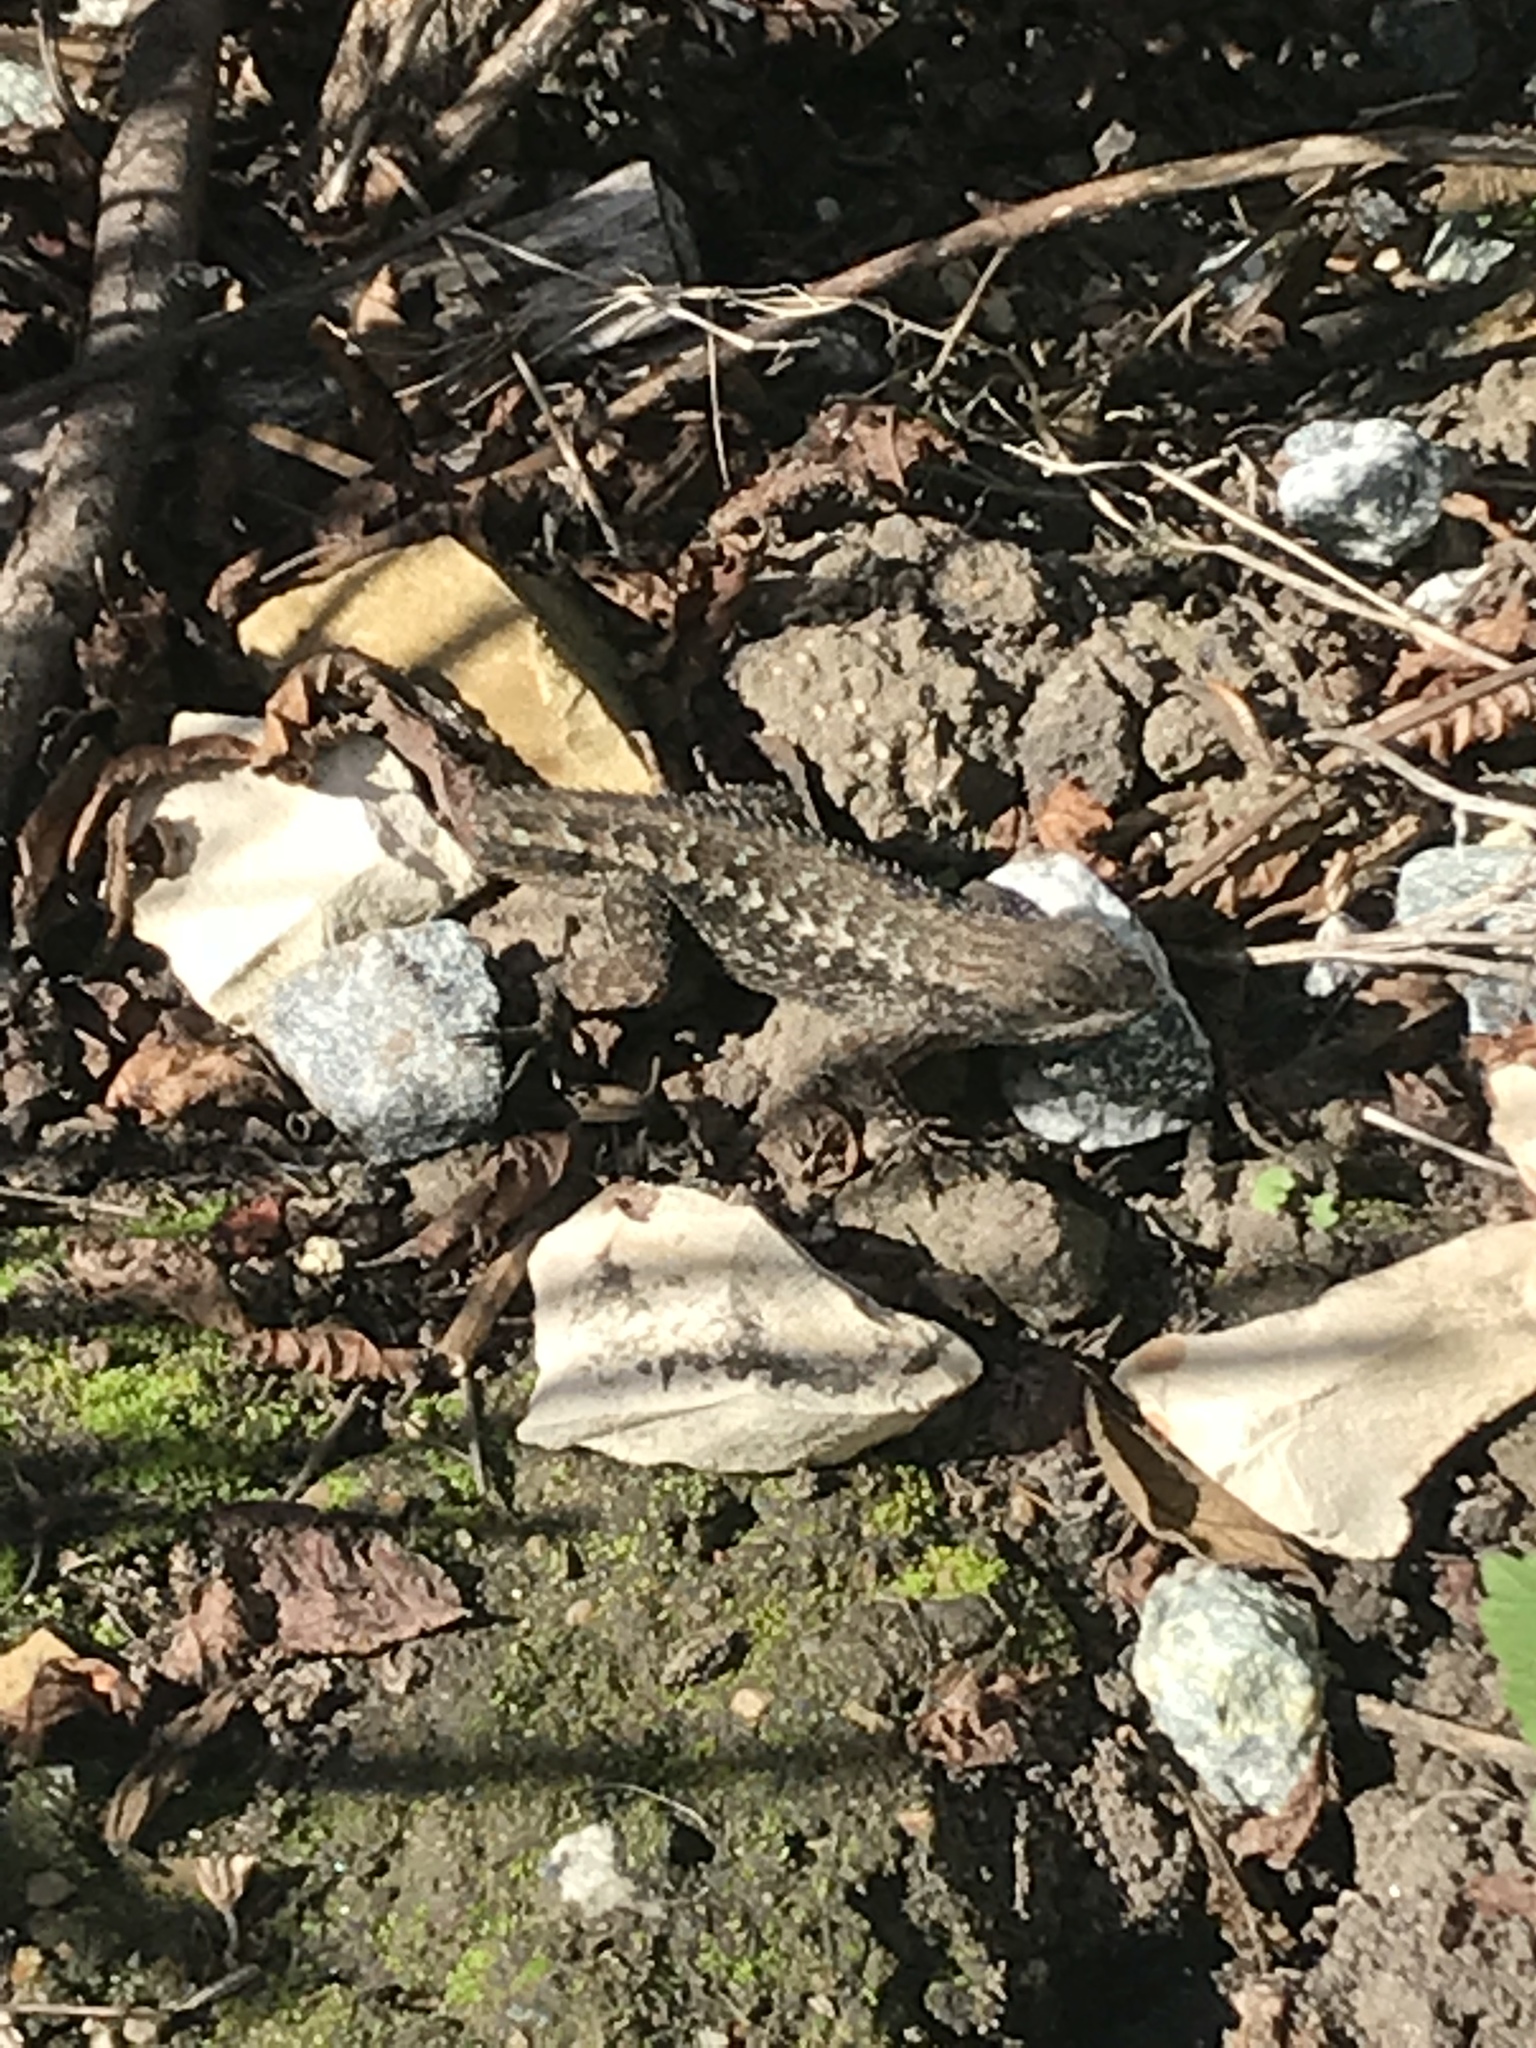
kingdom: Animalia
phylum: Chordata
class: Squamata
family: Phrynosomatidae
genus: Sceloporus
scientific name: Sceloporus occidentalis
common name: Western fence lizard
